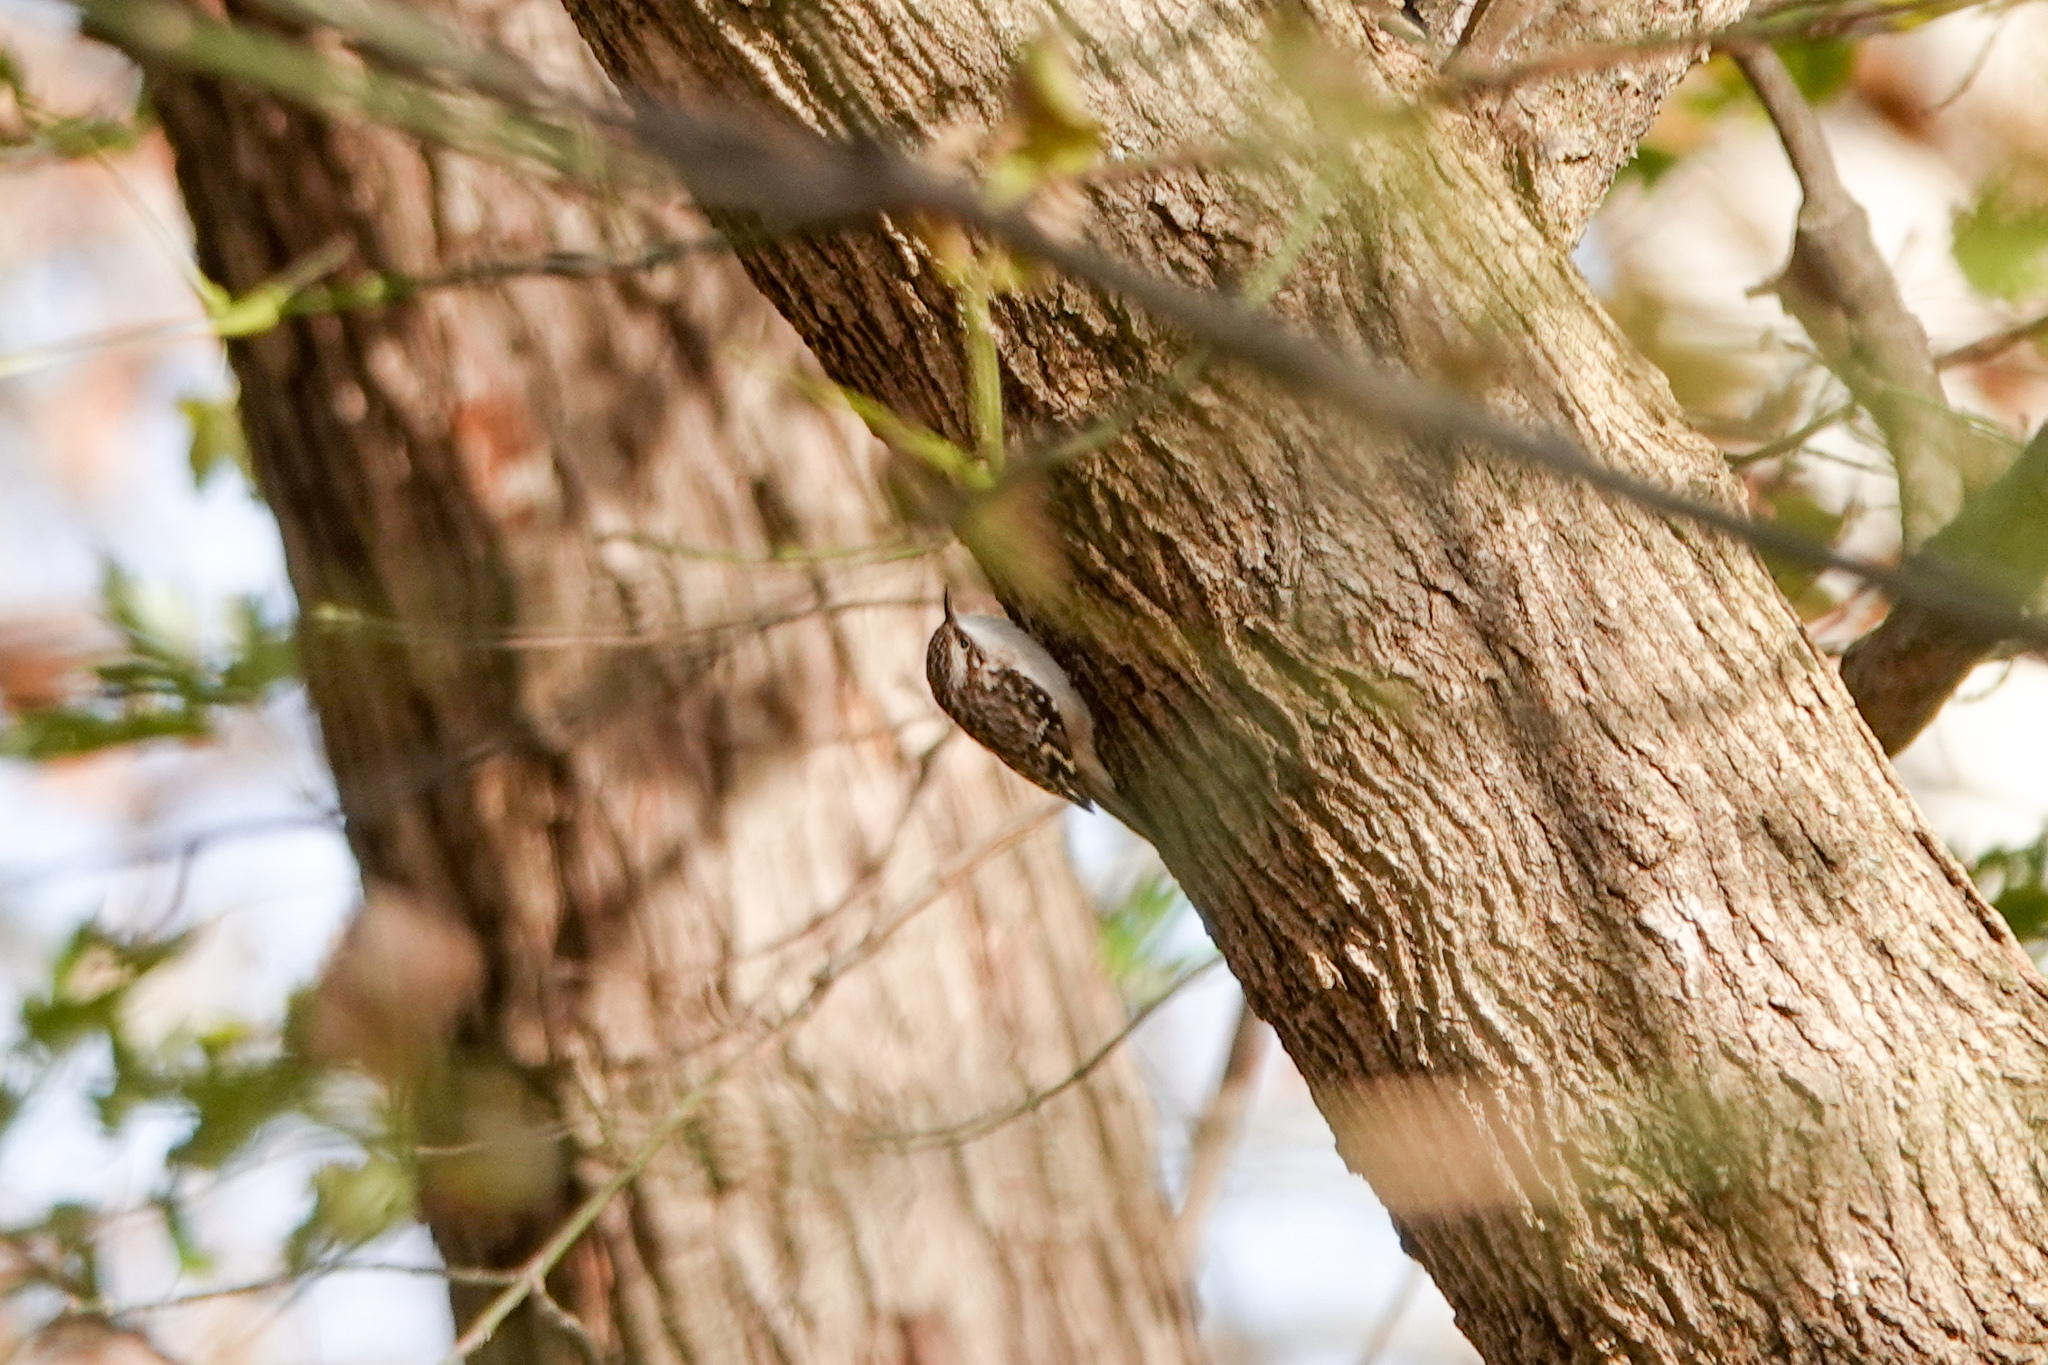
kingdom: Animalia
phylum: Chordata
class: Aves
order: Passeriformes
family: Certhiidae
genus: Certhia
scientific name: Certhia americana
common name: Brown creeper
